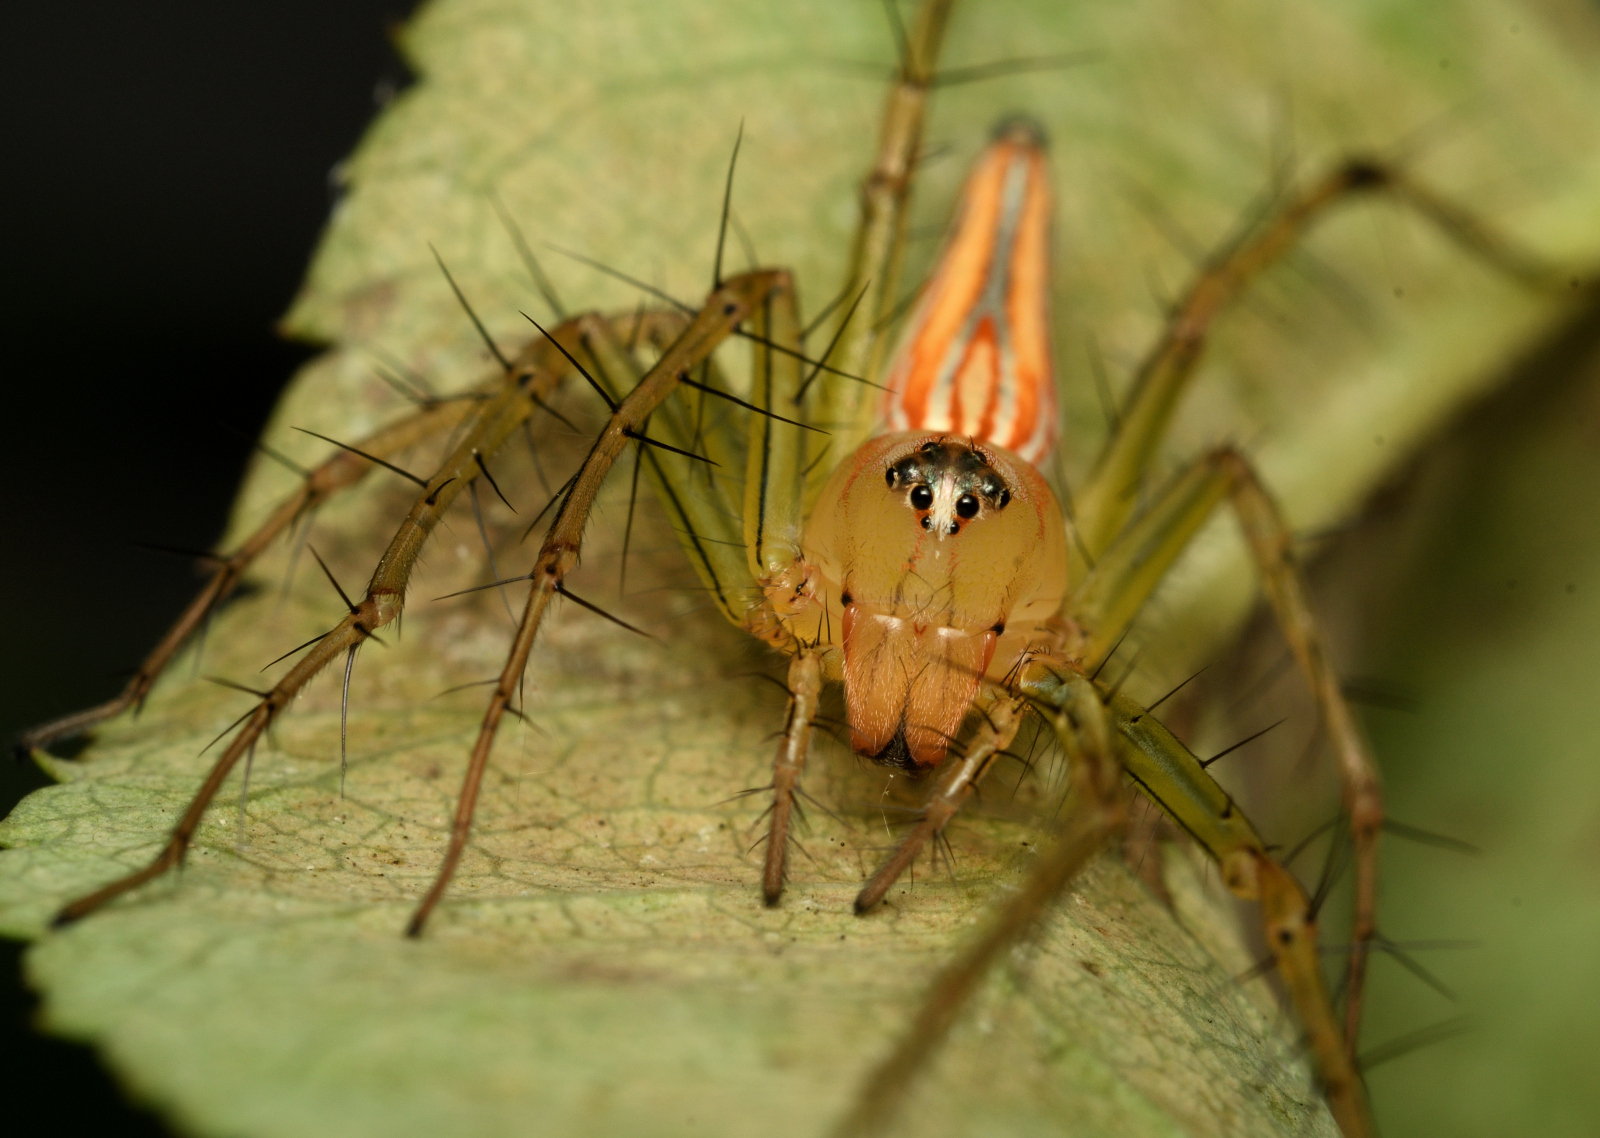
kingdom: Animalia
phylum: Arthropoda
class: Arachnida
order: Araneae
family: Oxyopidae
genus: Oxyopes
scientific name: Oxyopes macilentus
